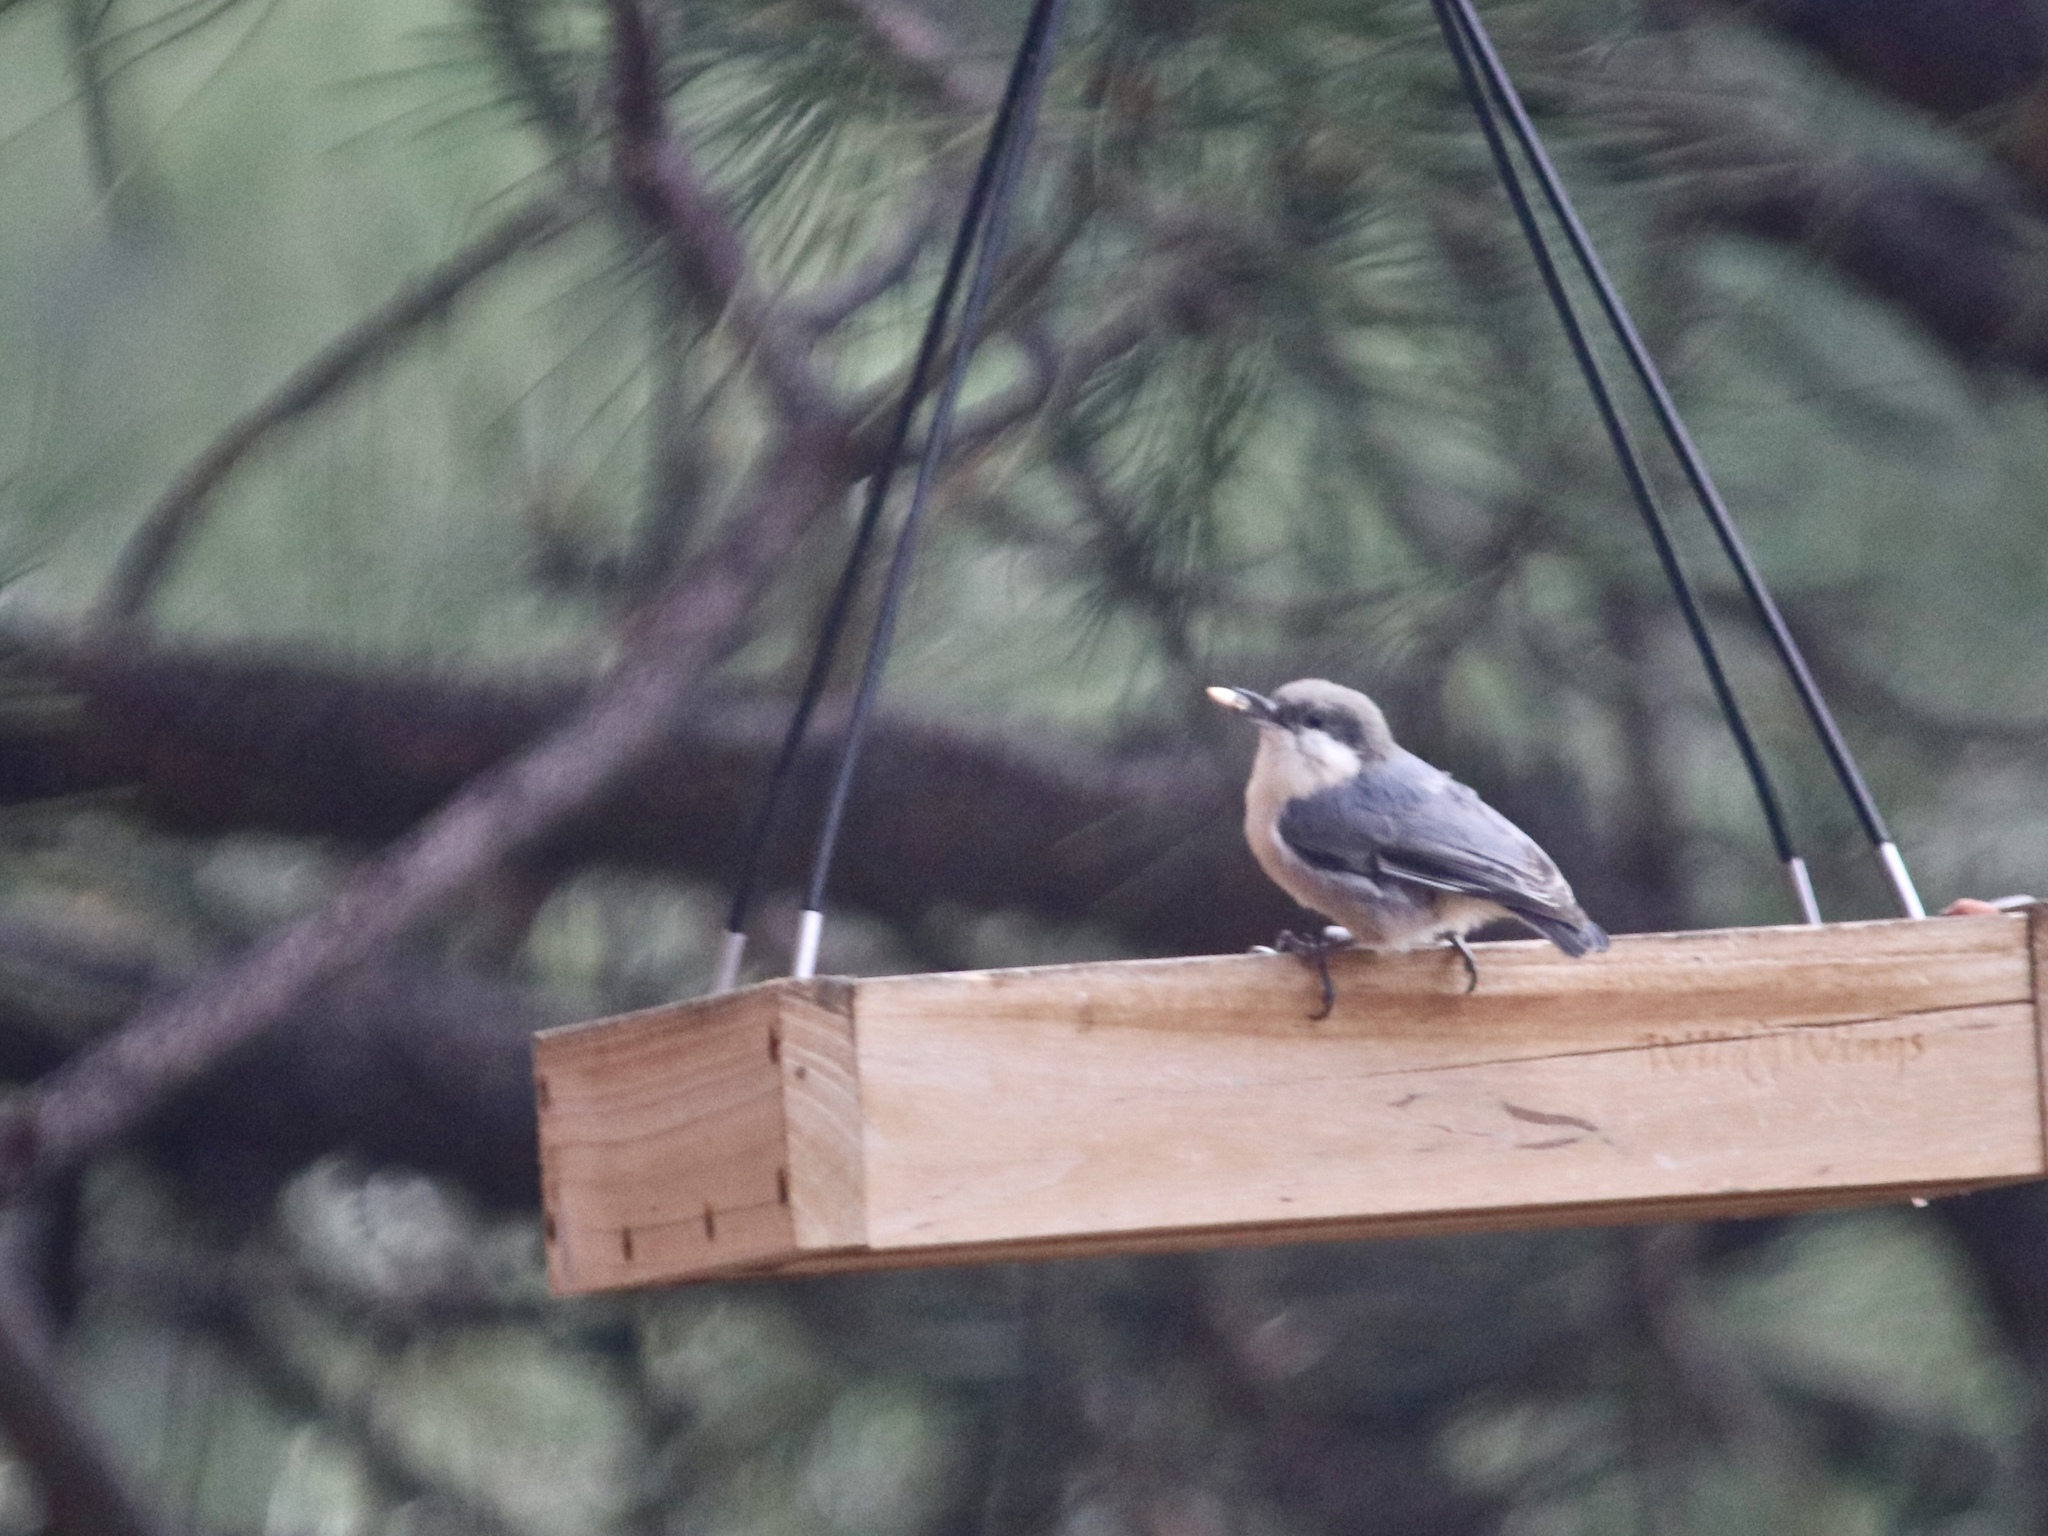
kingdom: Animalia
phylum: Chordata
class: Aves
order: Passeriformes
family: Sittidae
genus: Sitta
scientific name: Sitta pygmaea
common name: Pygmy nuthatch
